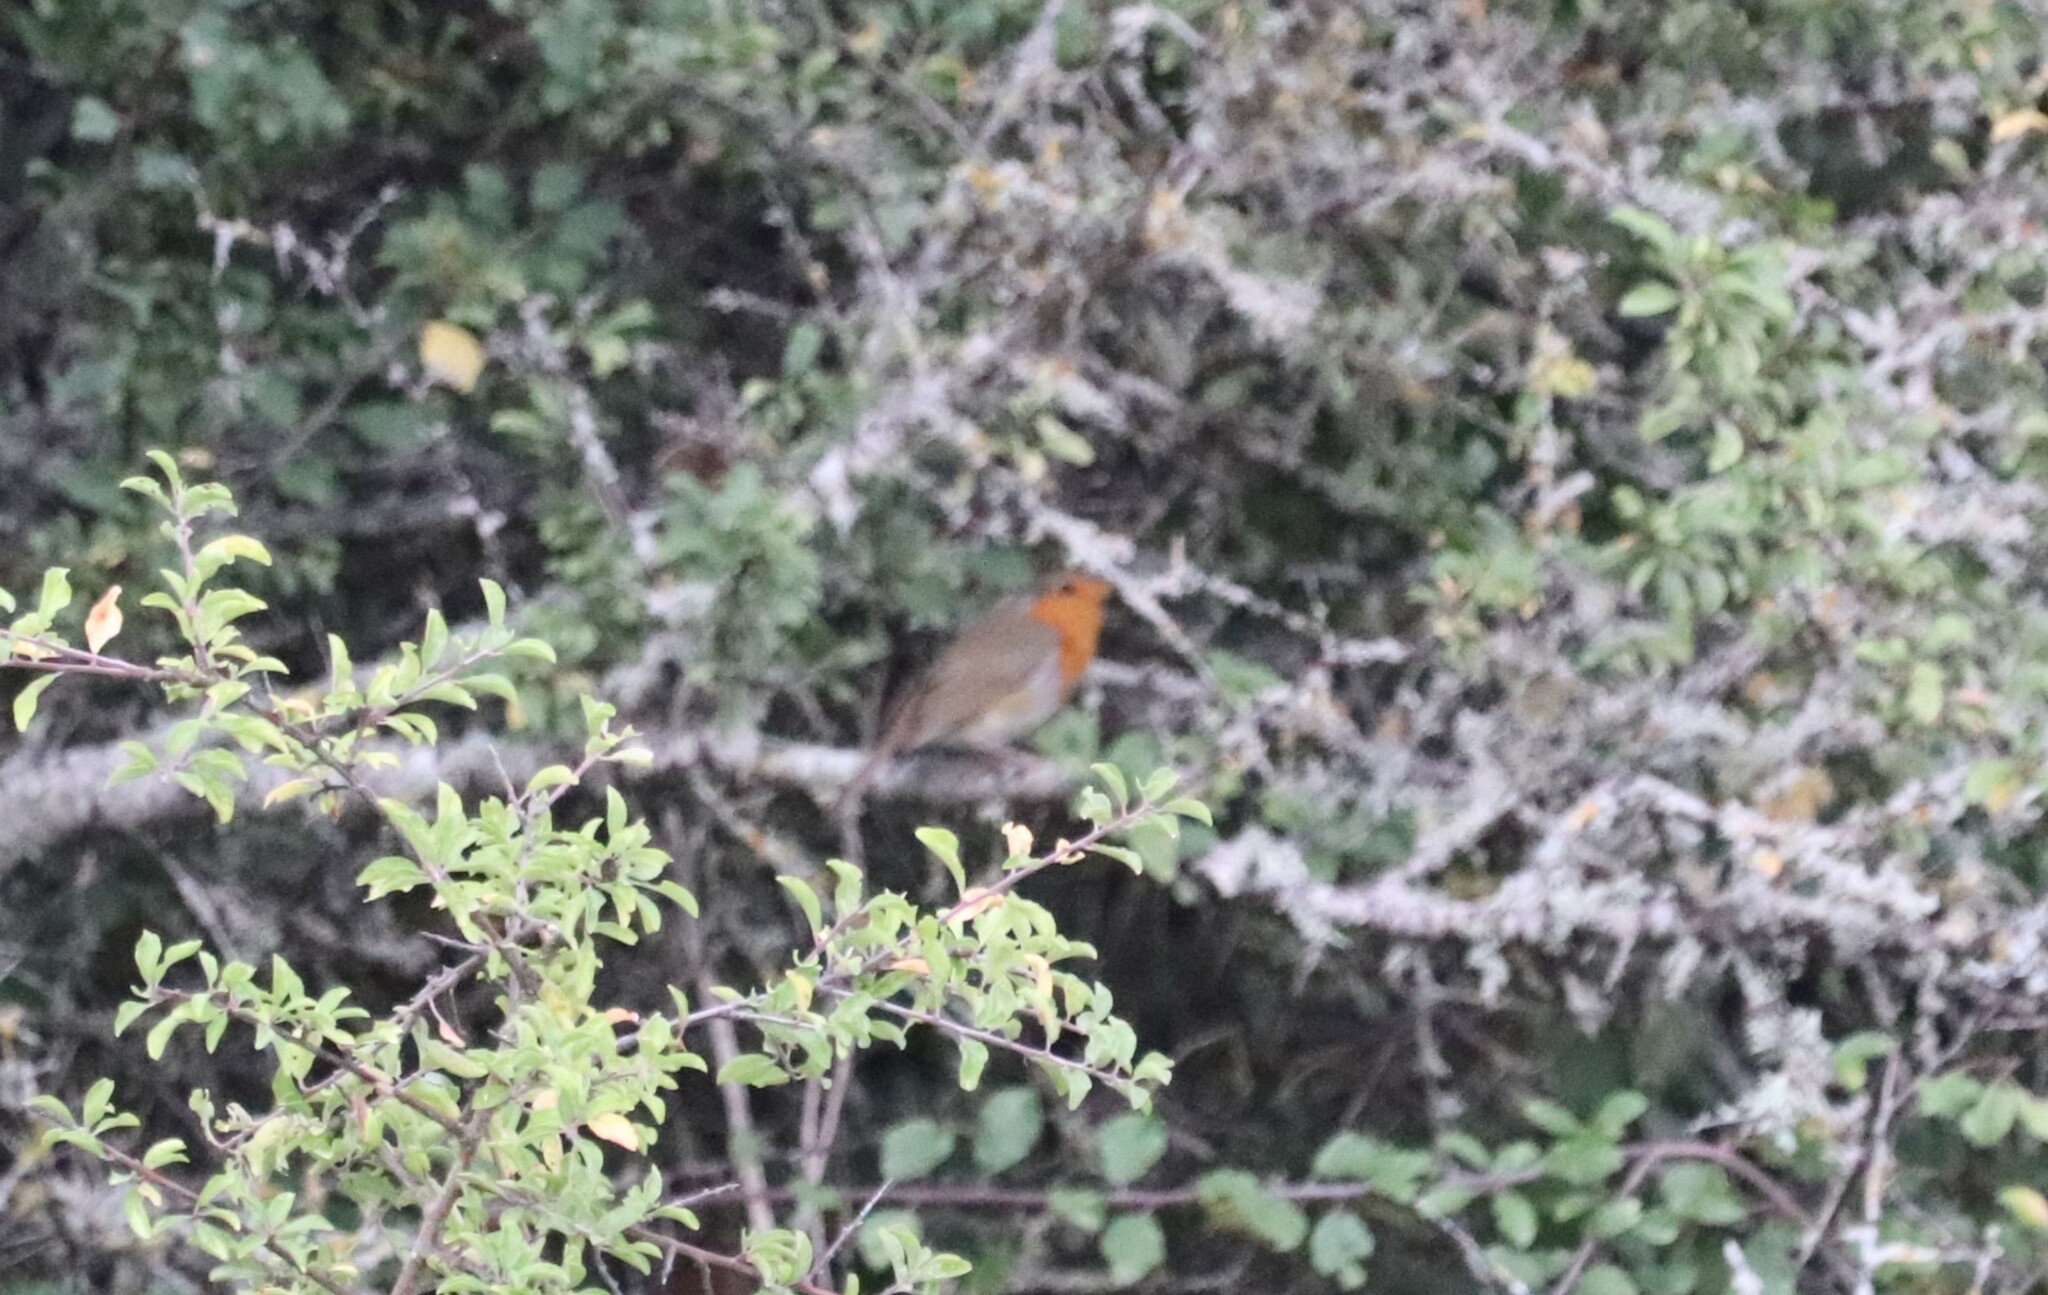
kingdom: Animalia
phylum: Chordata
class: Aves
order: Passeriformes
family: Muscicapidae
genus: Erithacus
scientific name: Erithacus rubecula
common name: European robin
